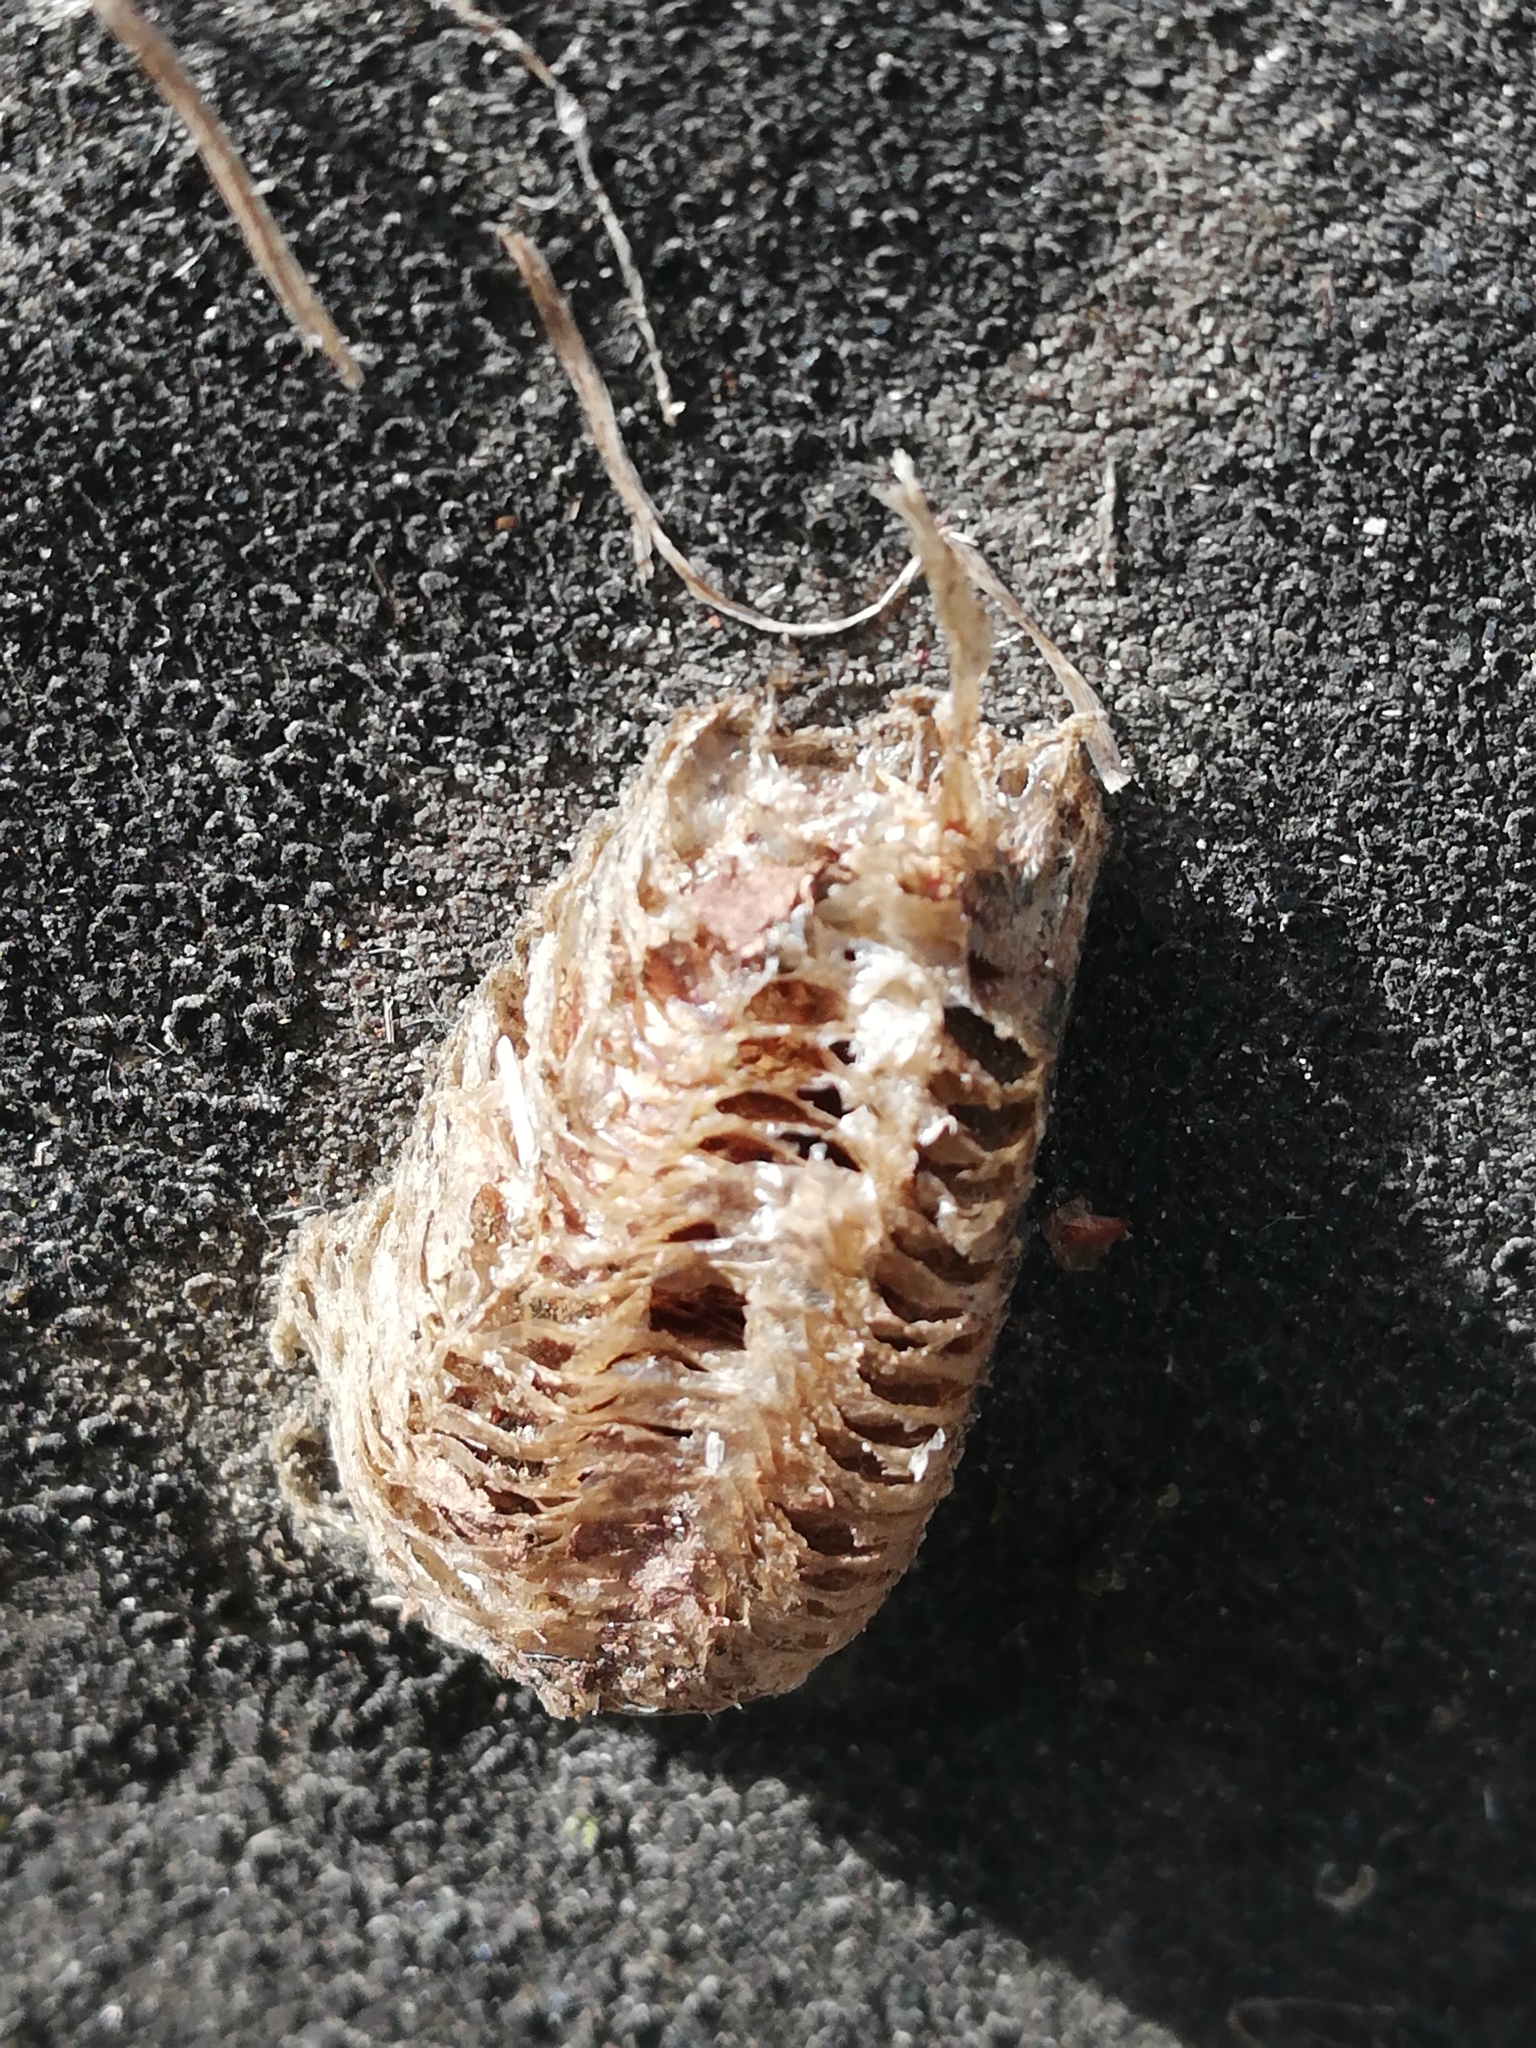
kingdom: Animalia
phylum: Arthropoda
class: Insecta
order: Mantodea
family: Mantidae
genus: Mantis
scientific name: Mantis religiosa
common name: Praying mantis
